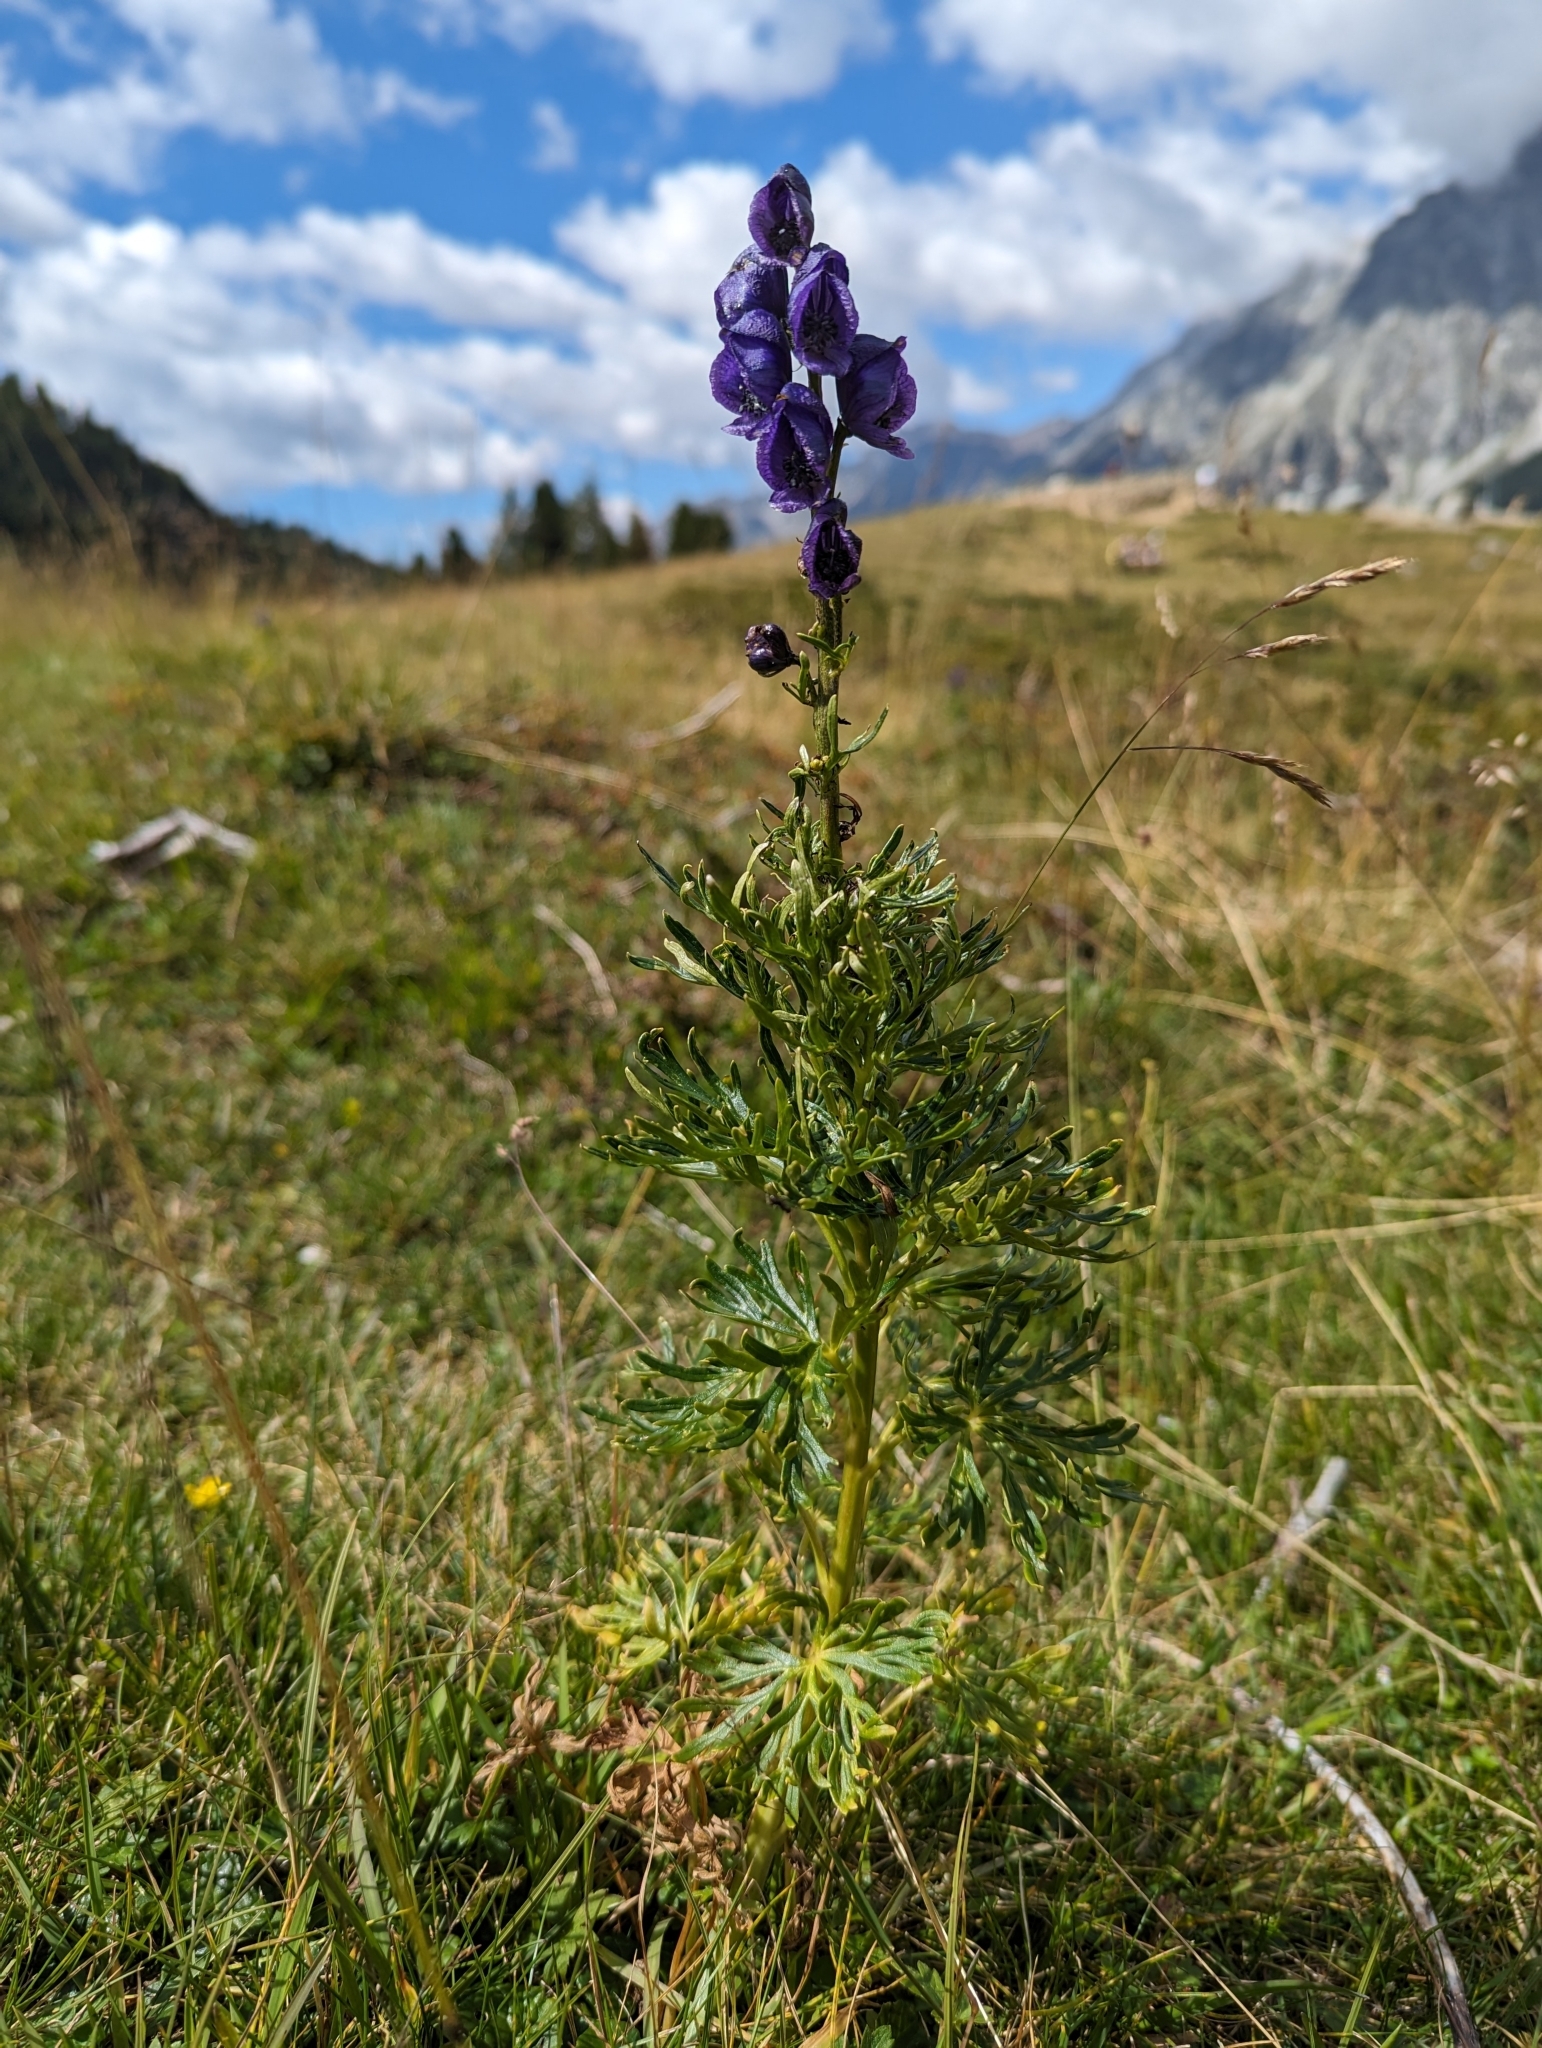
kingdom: Plantae
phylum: Tracheophyta
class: Magnoliopsida
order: Ranunculales
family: Ranunculaceae
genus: Aconitum
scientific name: Aconitum tauricum
